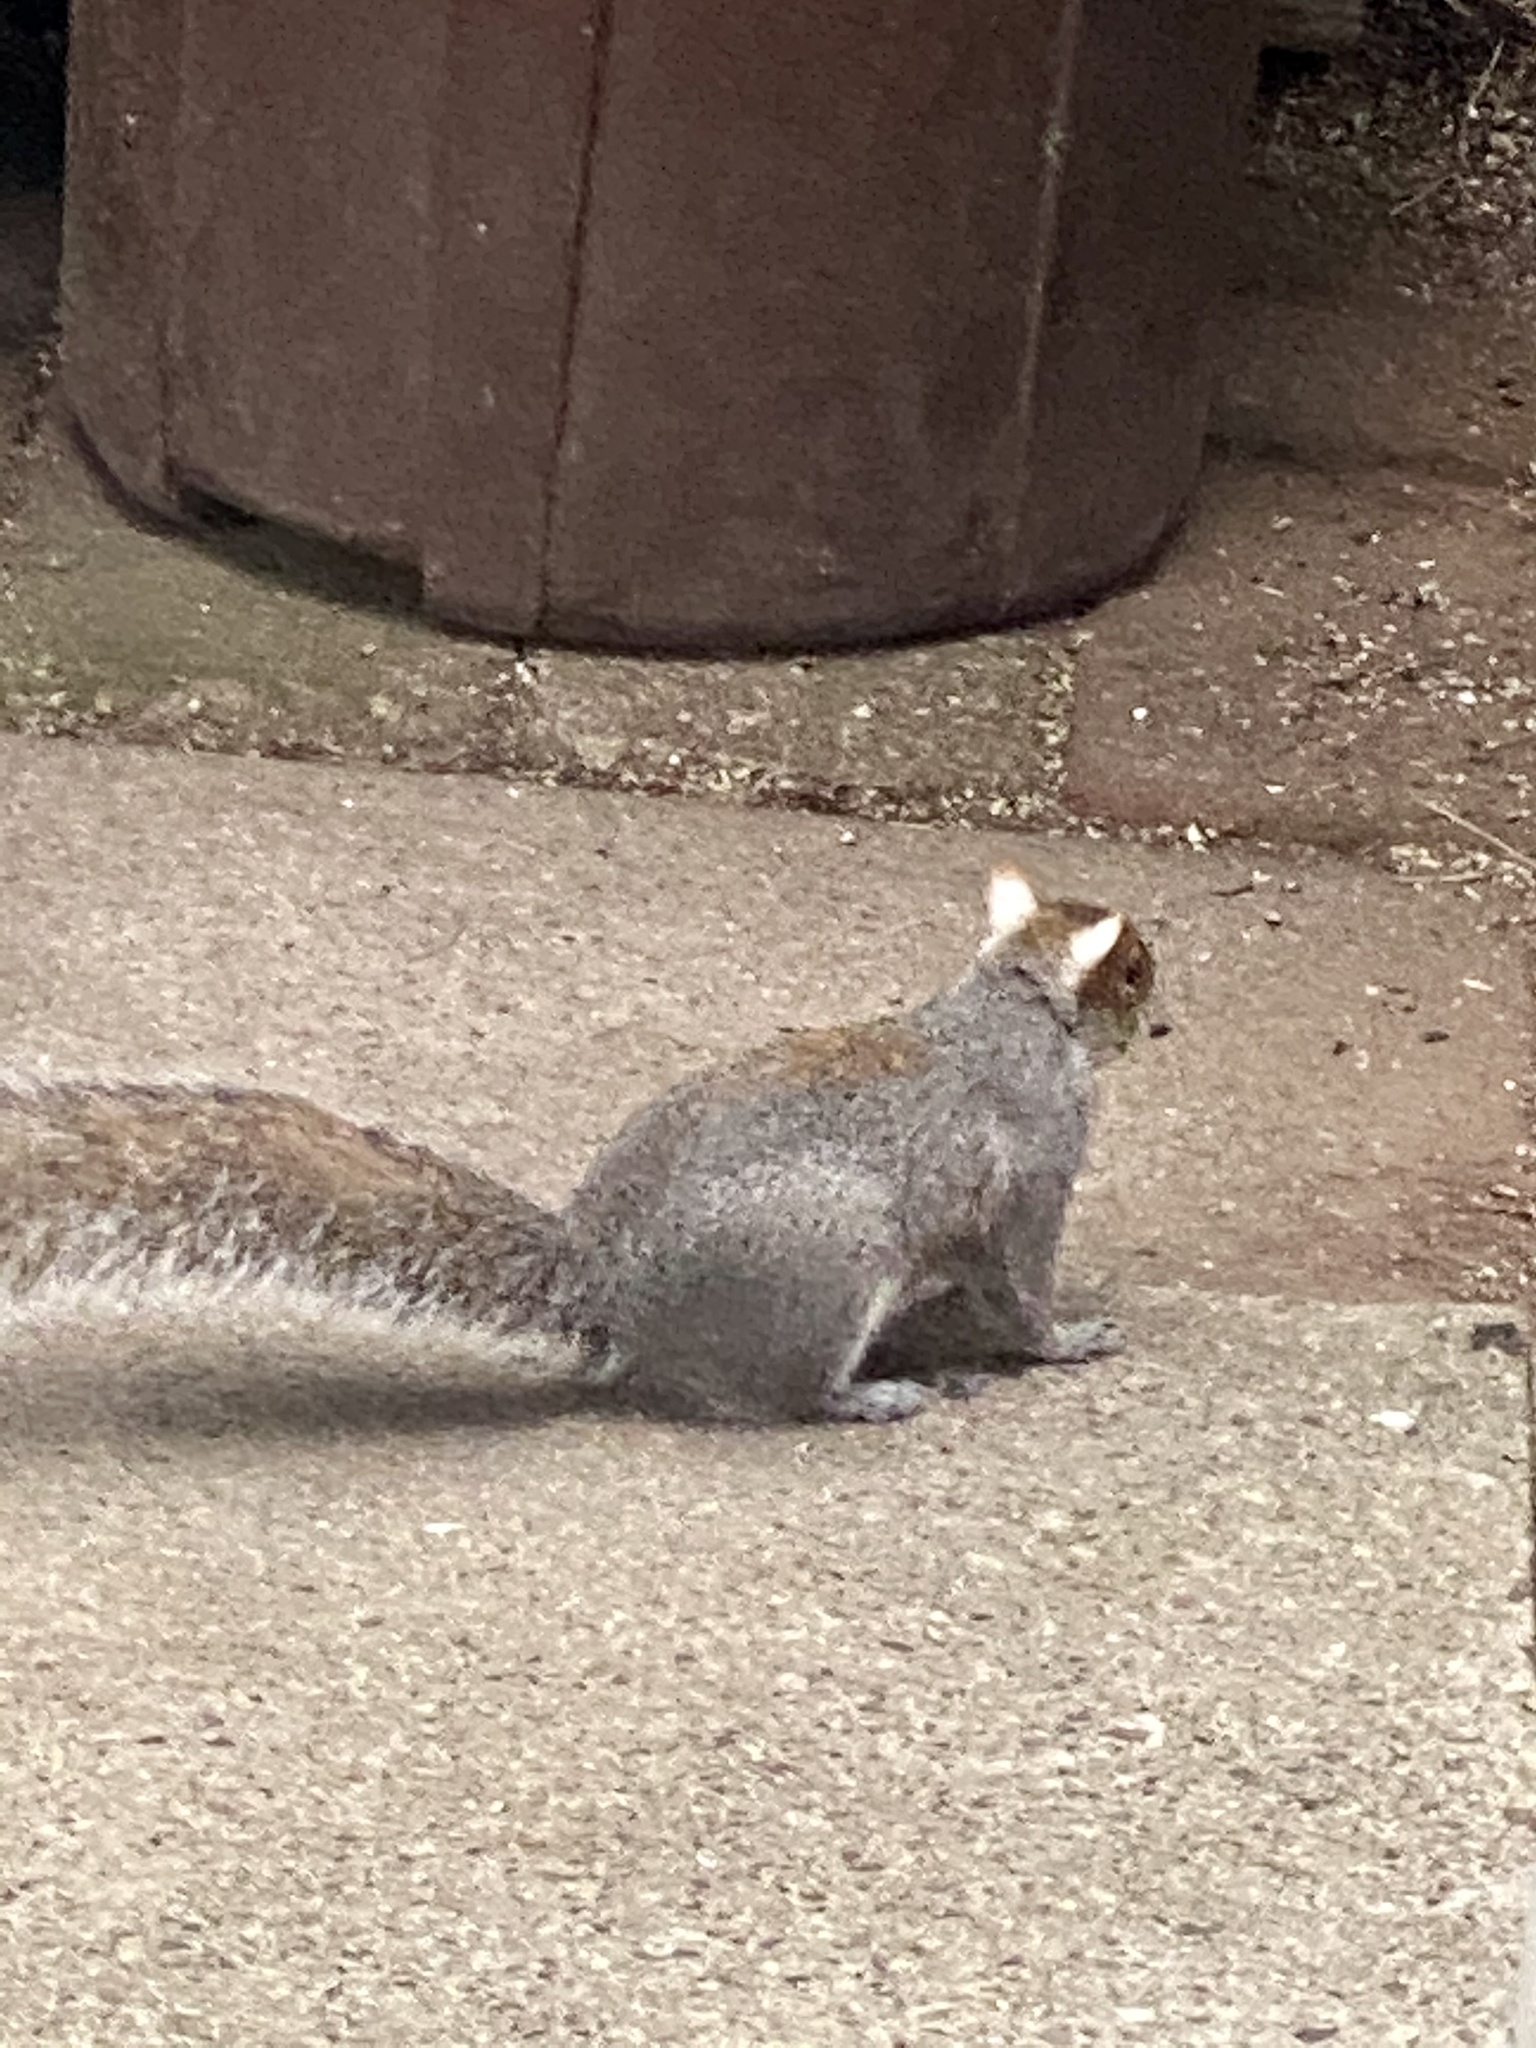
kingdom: Animalia
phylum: Chordata
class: Mammalia
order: Rodentia
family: Sciuridae
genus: Sciurus
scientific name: Sciurus carolinensis
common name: Eastern gray squirrel
